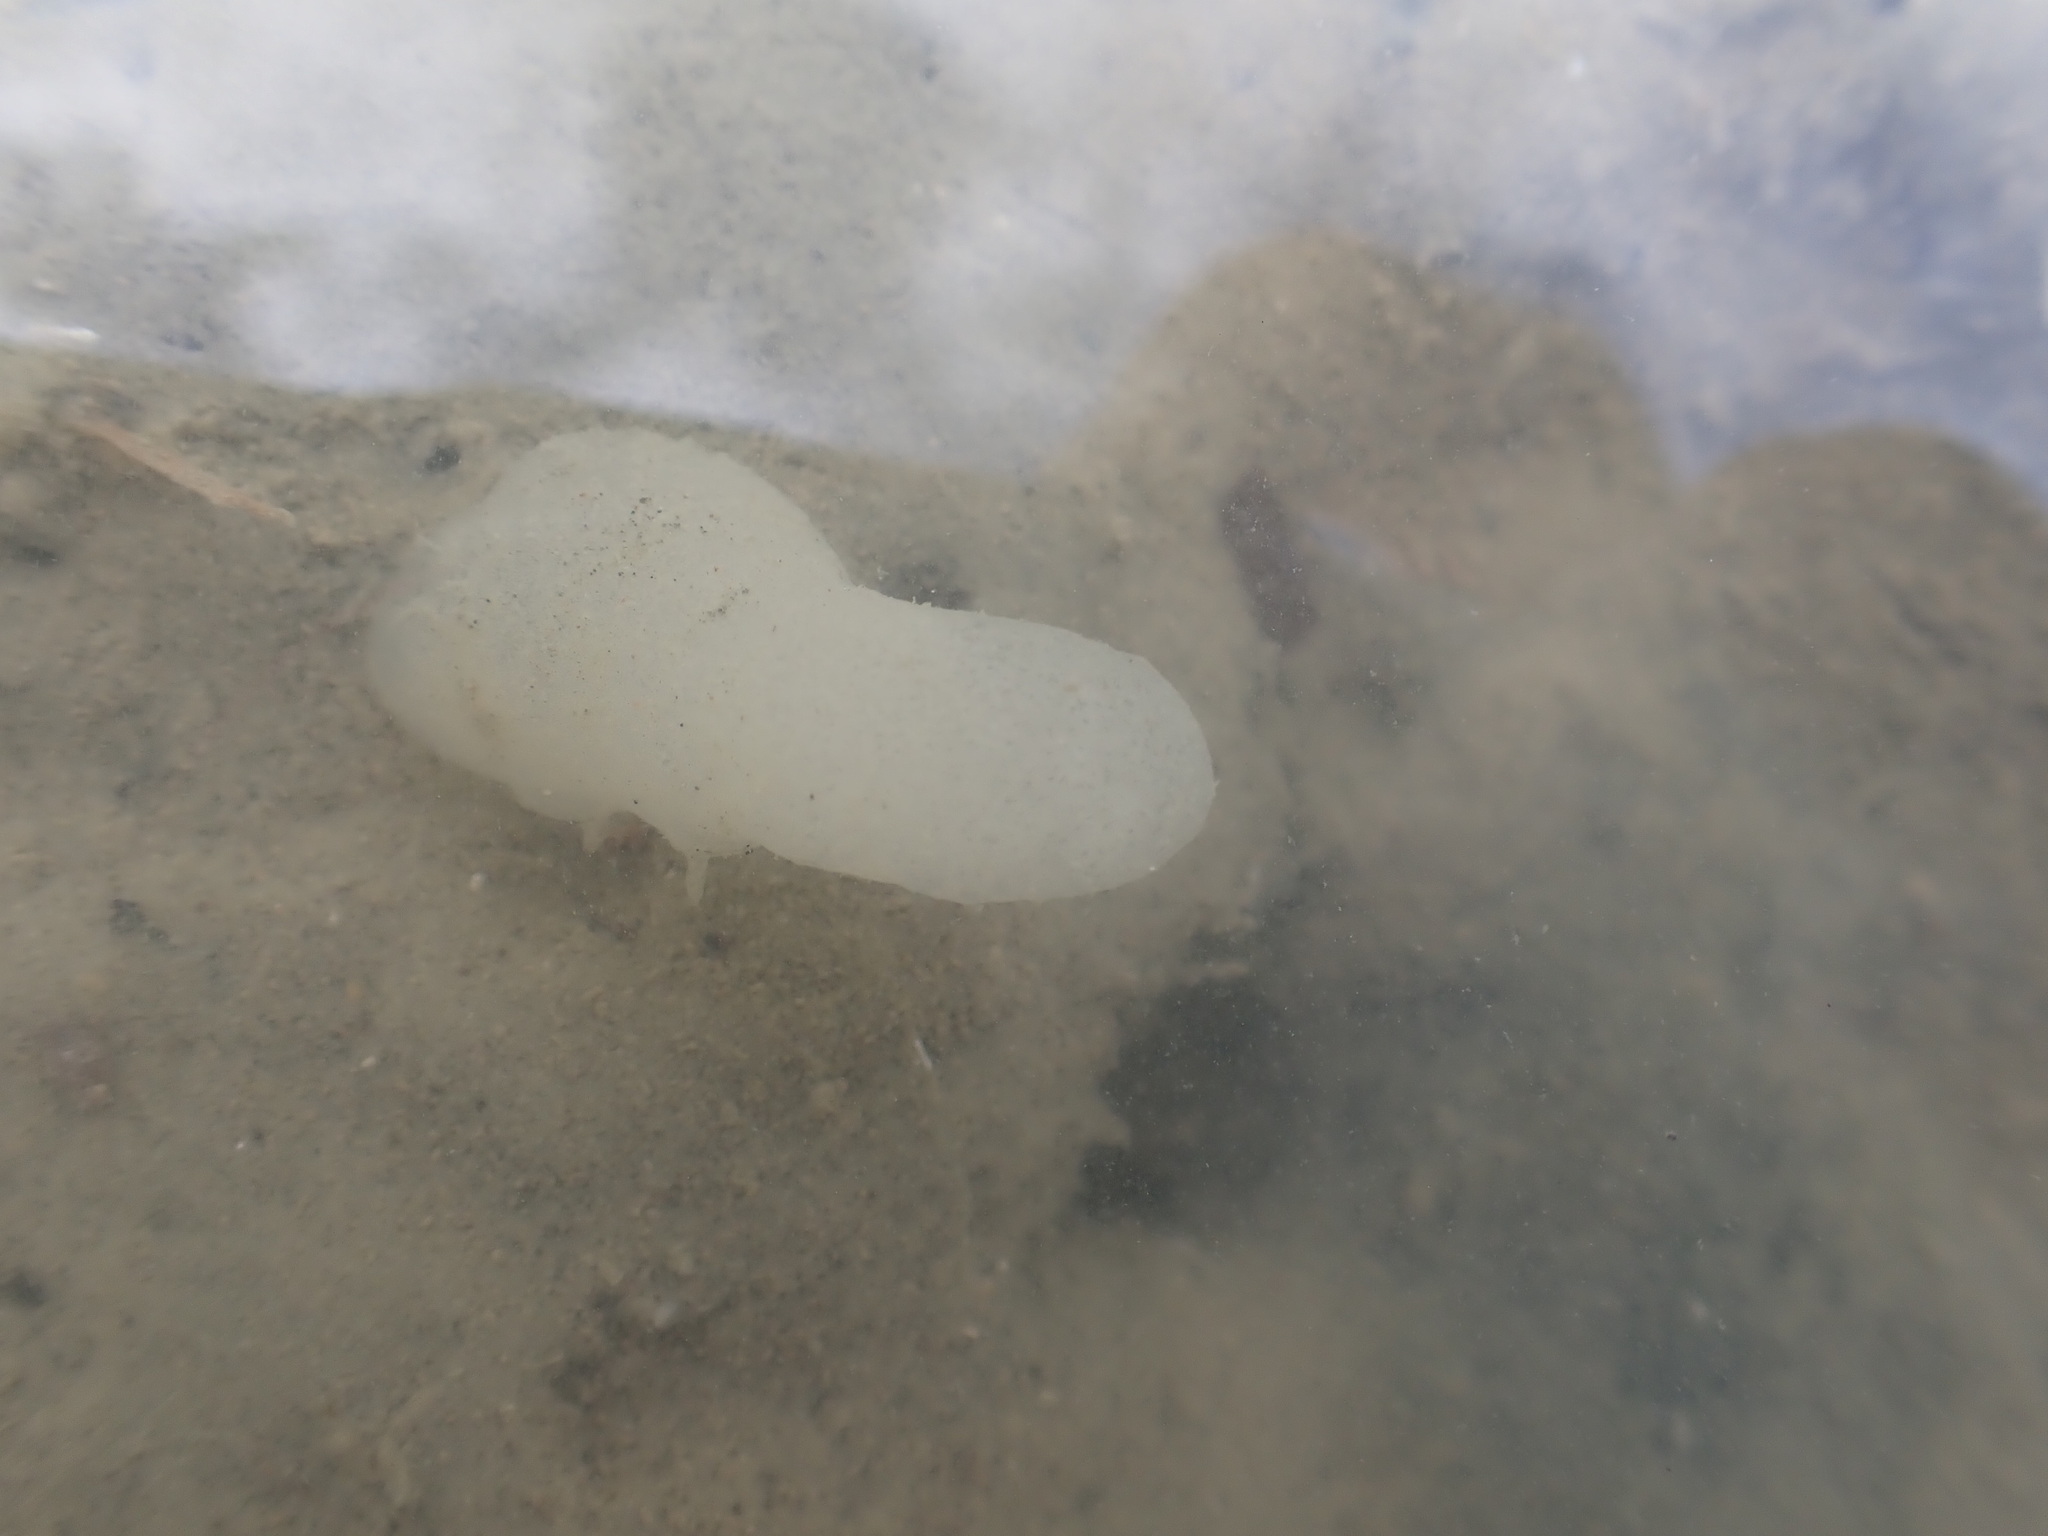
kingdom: Animalia
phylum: Mollusca
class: Gastropoda
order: Cephalaspidea
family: Philinidae
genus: Philine
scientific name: Philine
